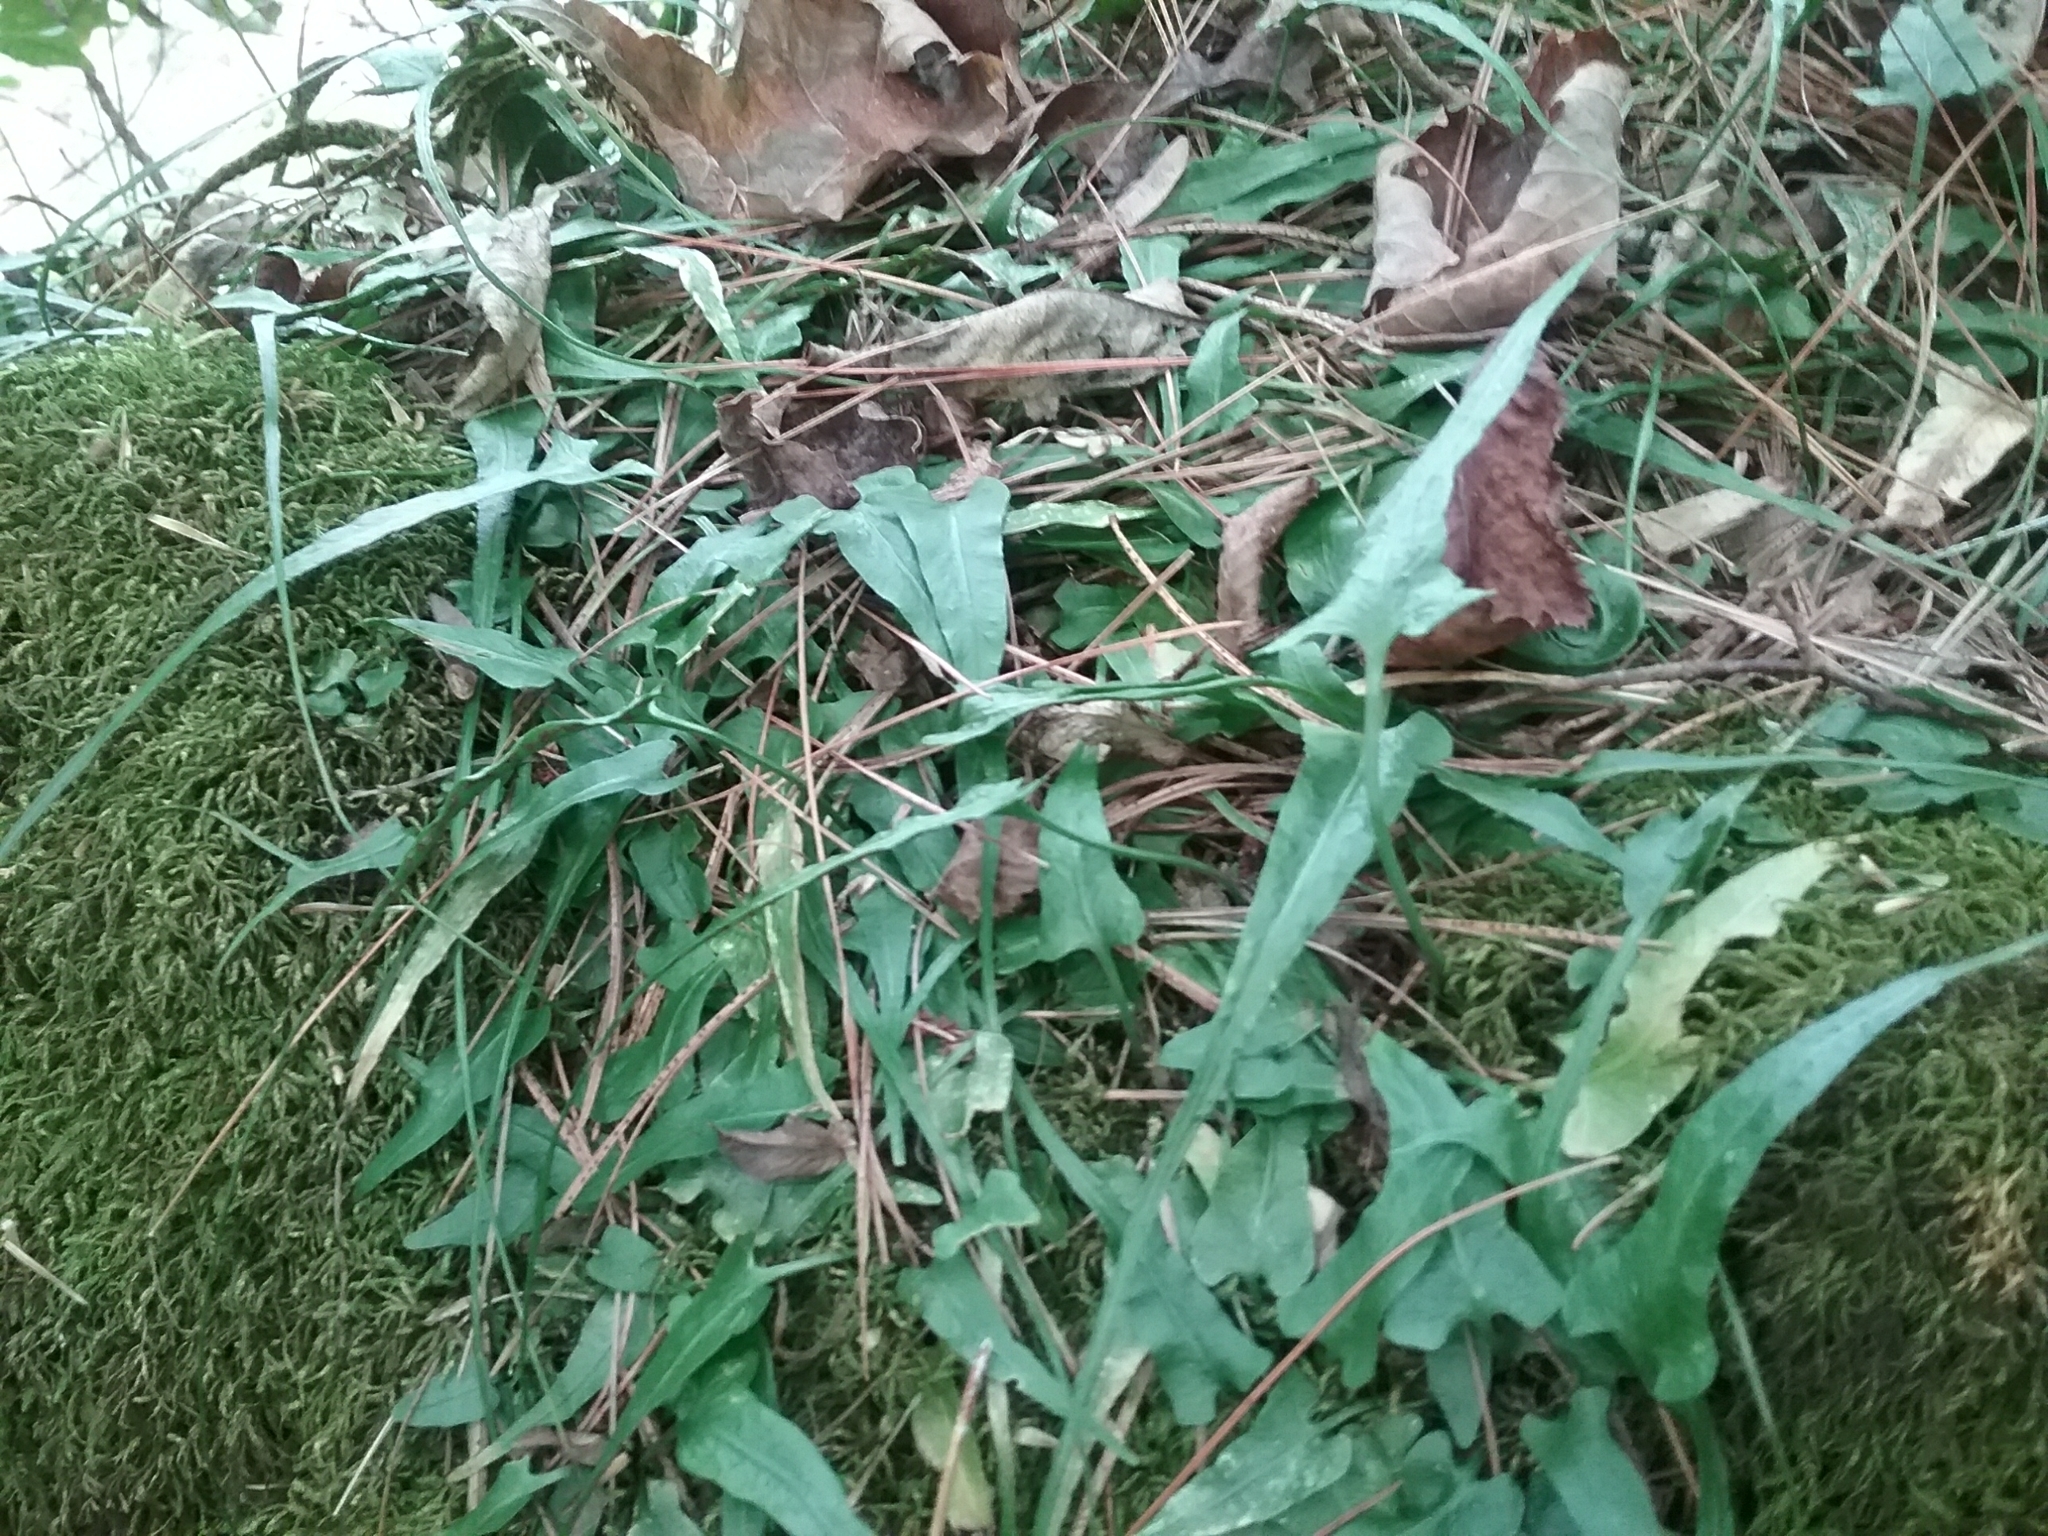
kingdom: Plantae
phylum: Tracheophyta
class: Polypodiopsida
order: Polypodiales
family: Aspleniaceae
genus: Asplenium
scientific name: Asplenium rhizophyllum
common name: Walking fern
